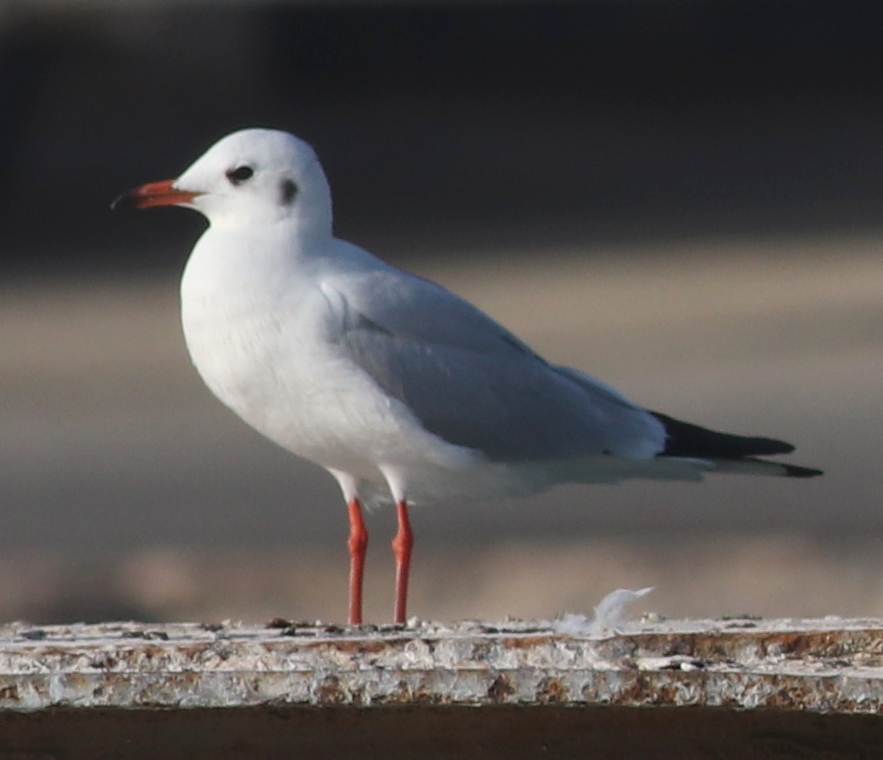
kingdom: Animalia
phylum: Chordata
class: Aves
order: Charadriiformes
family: Laridae
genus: Chroicocephalus
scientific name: Chroicocephalus ridibundus
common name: Black-headed gull
